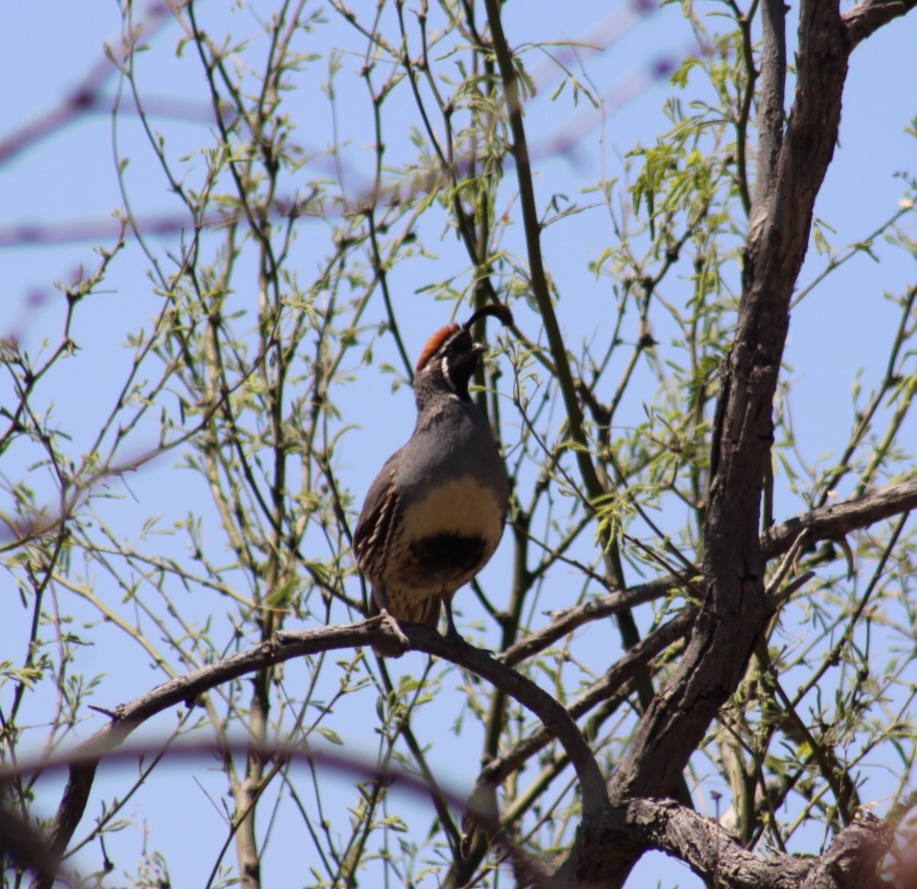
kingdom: Animalia
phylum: Chordata
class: Aves
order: Galliformes
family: Odontophoridae
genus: Callipepla
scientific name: Callipepla gambelii
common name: Gambel's quail
